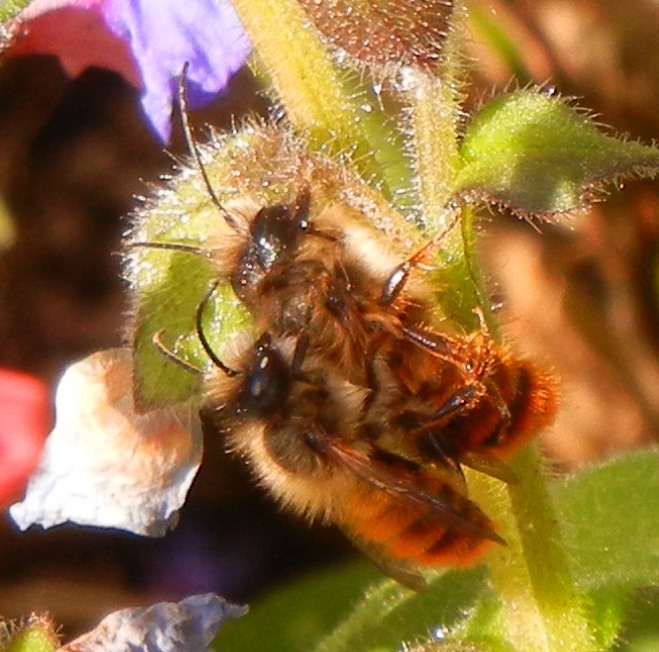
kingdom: Animalia
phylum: Arthropoda
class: Insecta
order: Hymenoptera
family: Megachilidae
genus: Osmia
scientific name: Osmia bicornis
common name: Red mason bee
